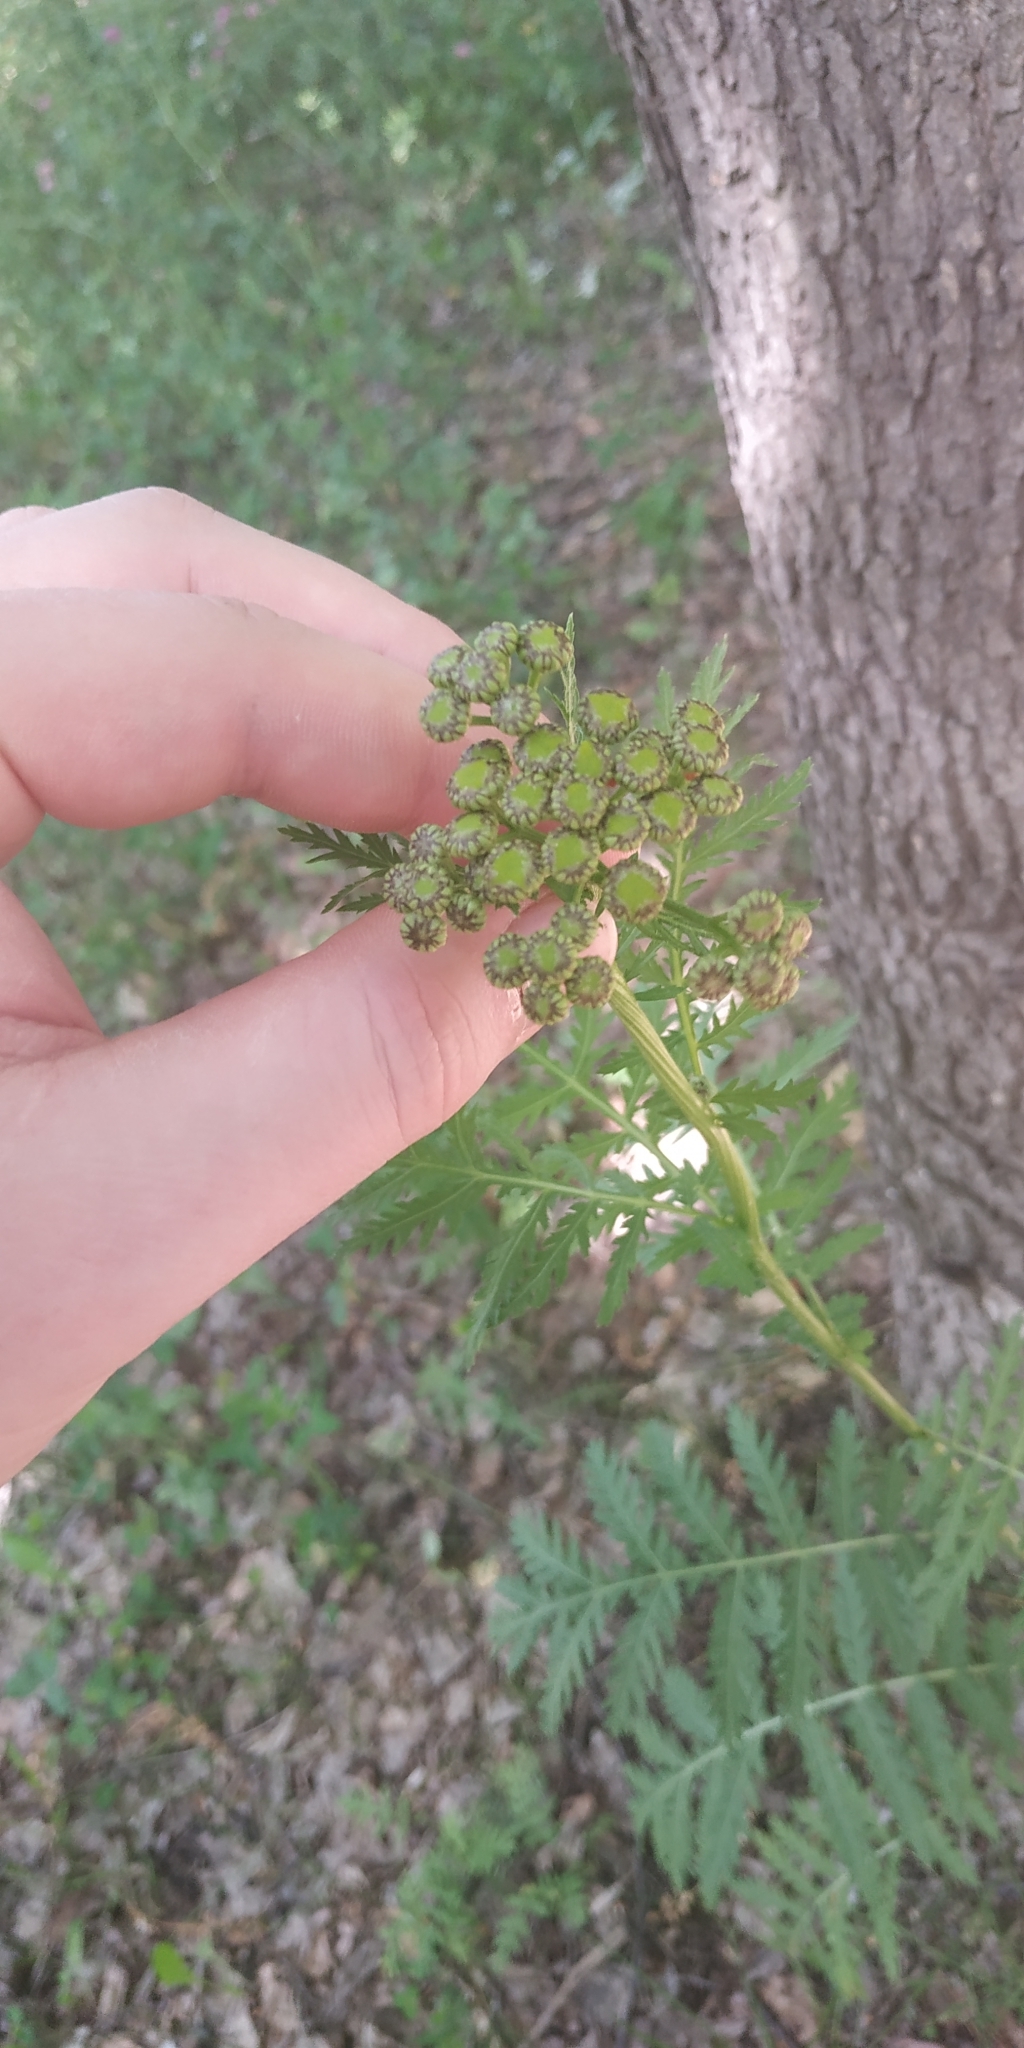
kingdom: Plantae
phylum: Tracheophyta
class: Magnoliopsida
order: Asterales
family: Asteraceae
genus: Tanacetum
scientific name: Tanacetum vulgare
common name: Common tansy
